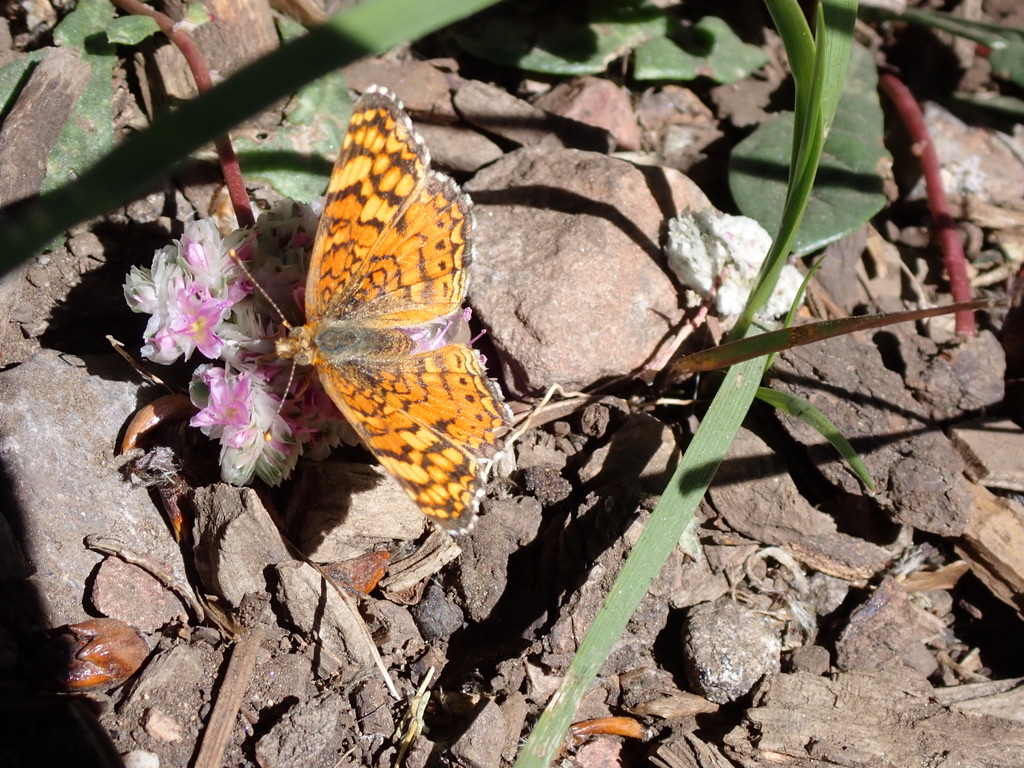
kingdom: Animalia
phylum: Arthropoda
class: Insecta
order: Lepidoptera
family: Nymphalidae
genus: Eresia
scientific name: Eresia aveyrona
